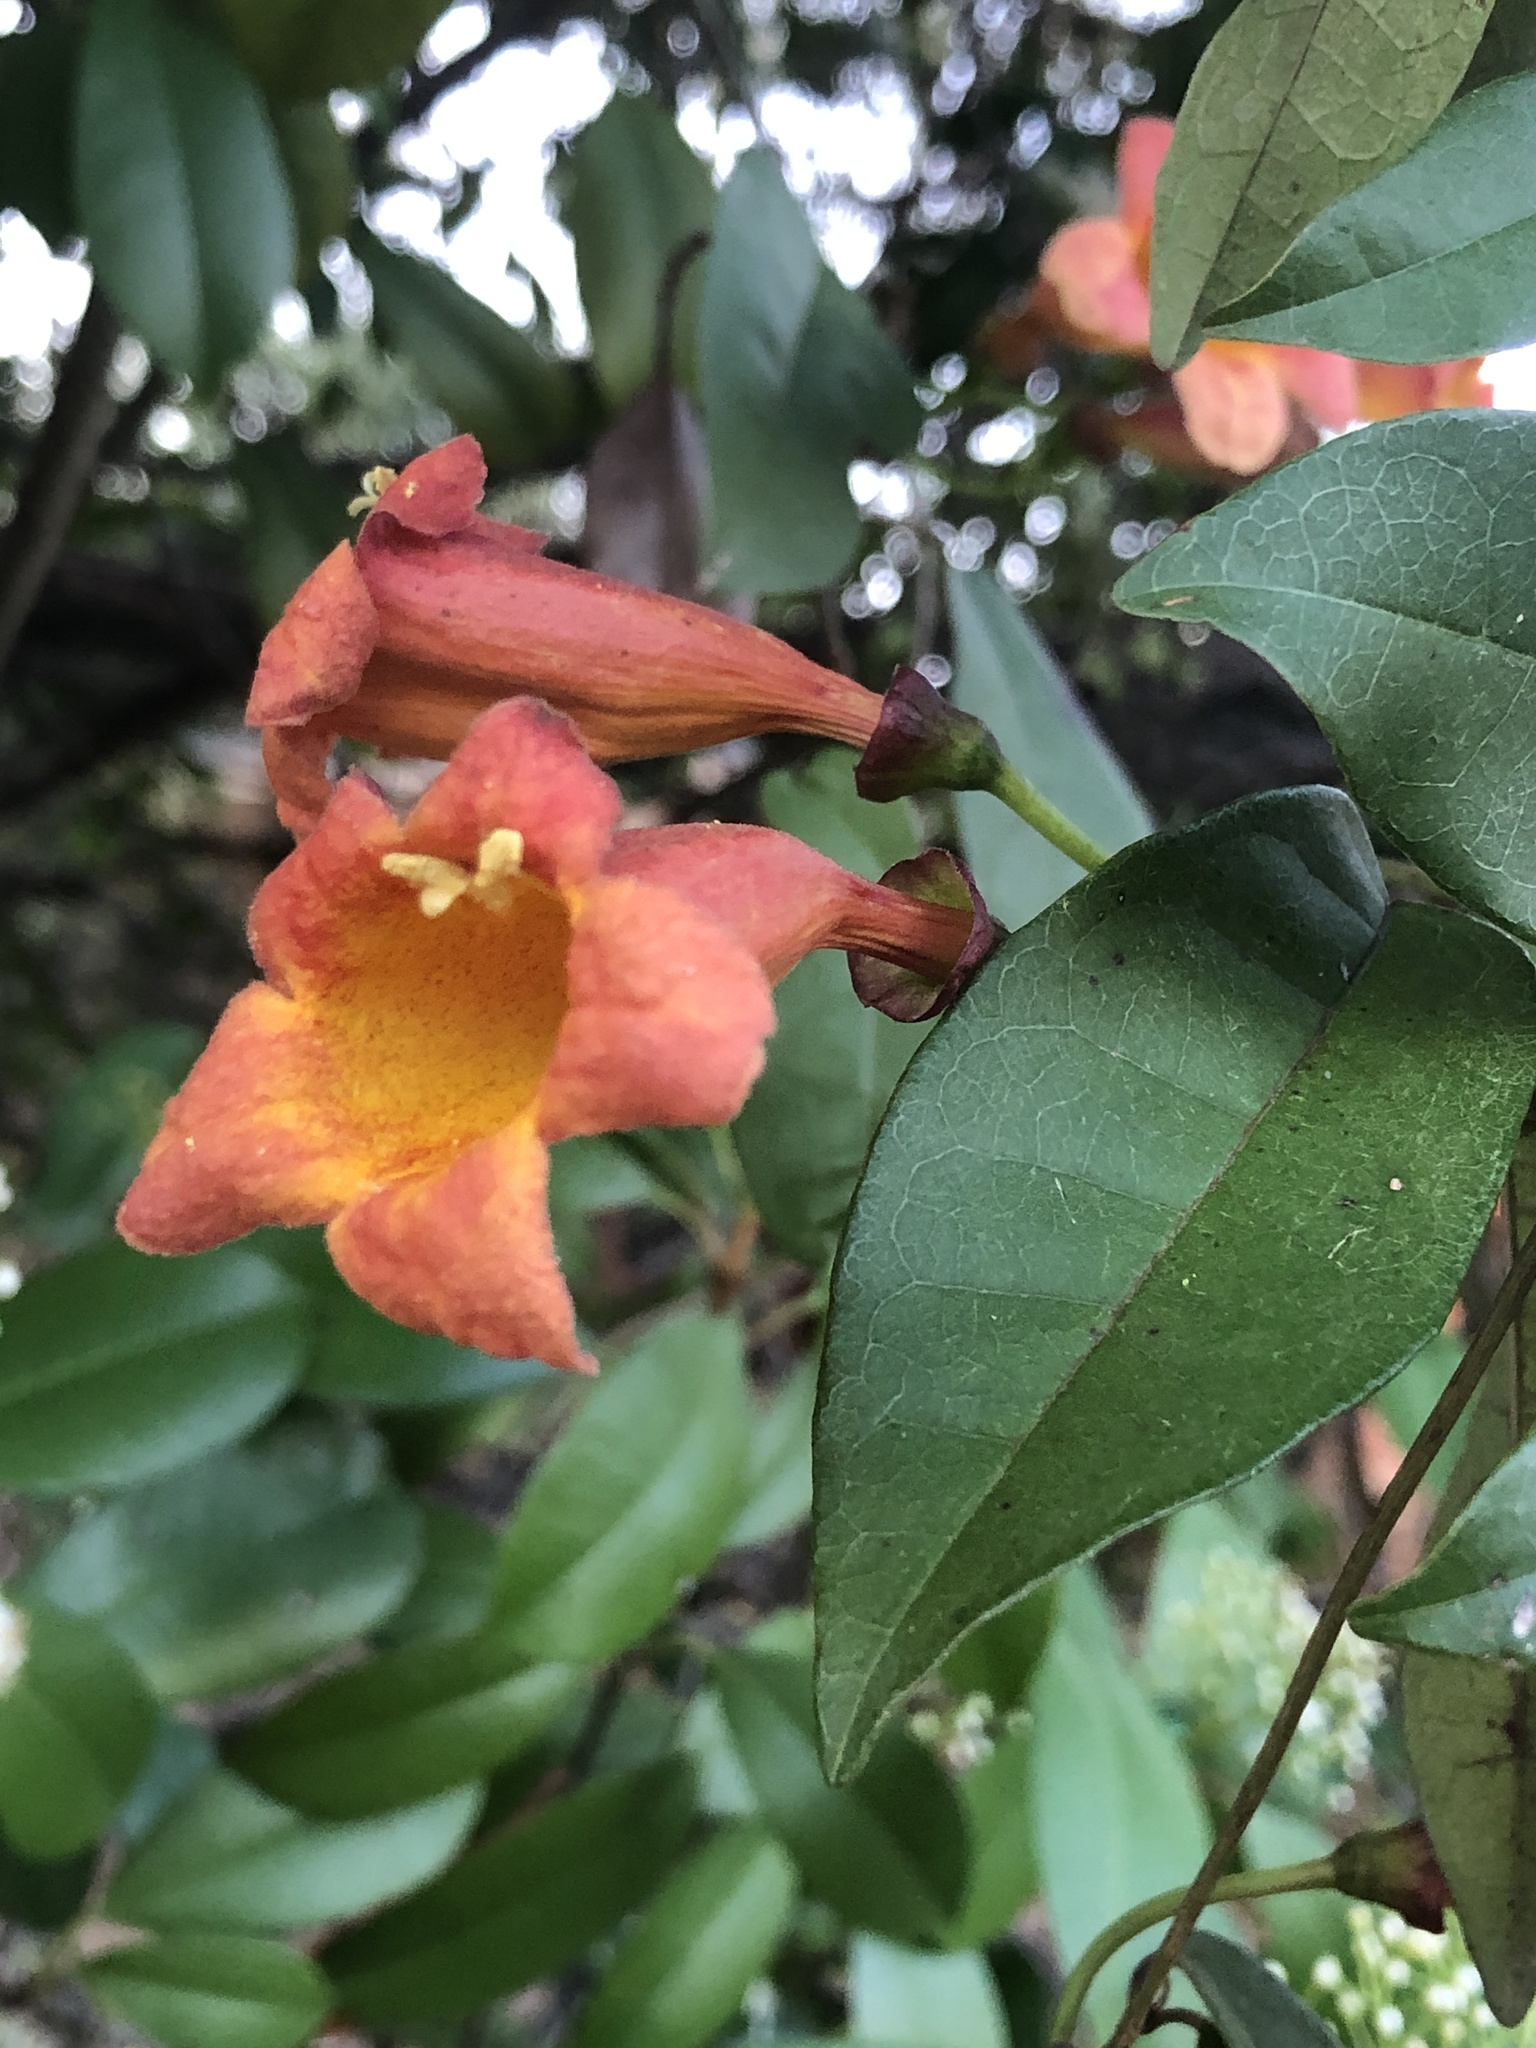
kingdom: Plantae
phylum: Tracheophyta
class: Magnoliopsida
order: Lamiales
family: Bignoniaceae
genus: Bignonia
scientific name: Bignonia capreolata
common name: Crossvine
